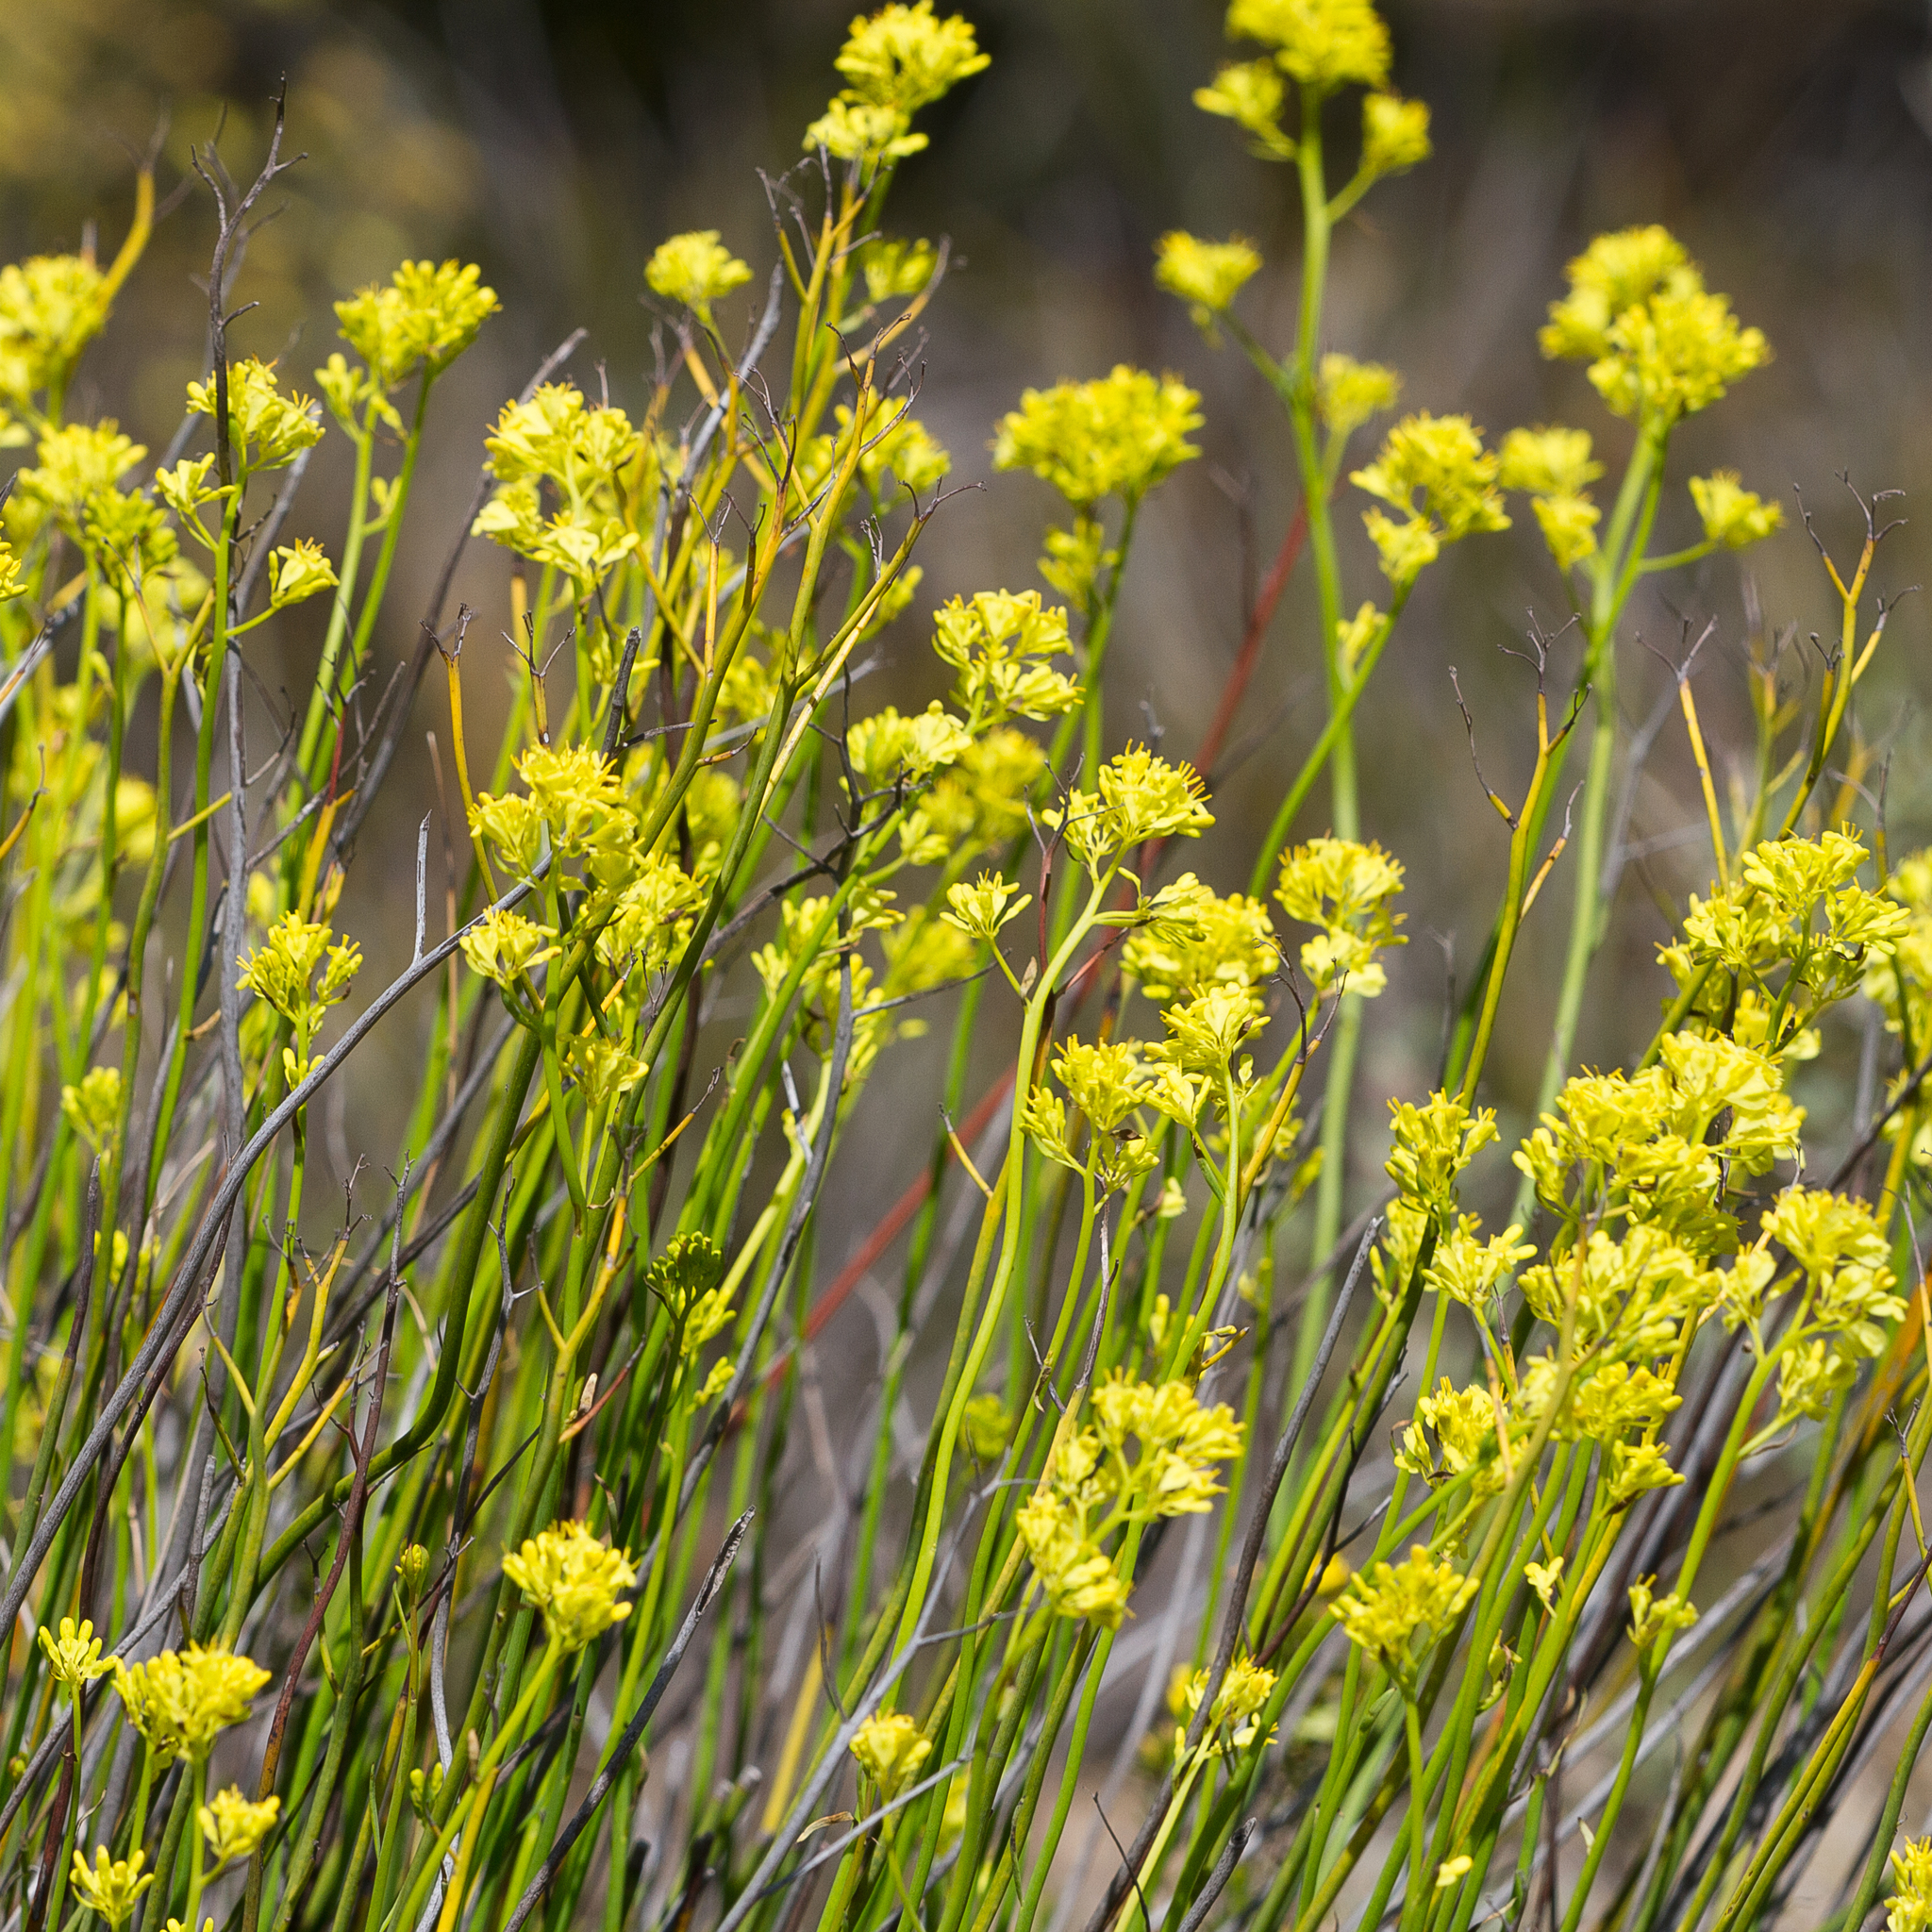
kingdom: Plantae
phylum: Tracheophyta
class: Magnoliopsida
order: Saxifragales
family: Haloragaceae
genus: Glischrocaryon
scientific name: Glischrocaryon behrii
